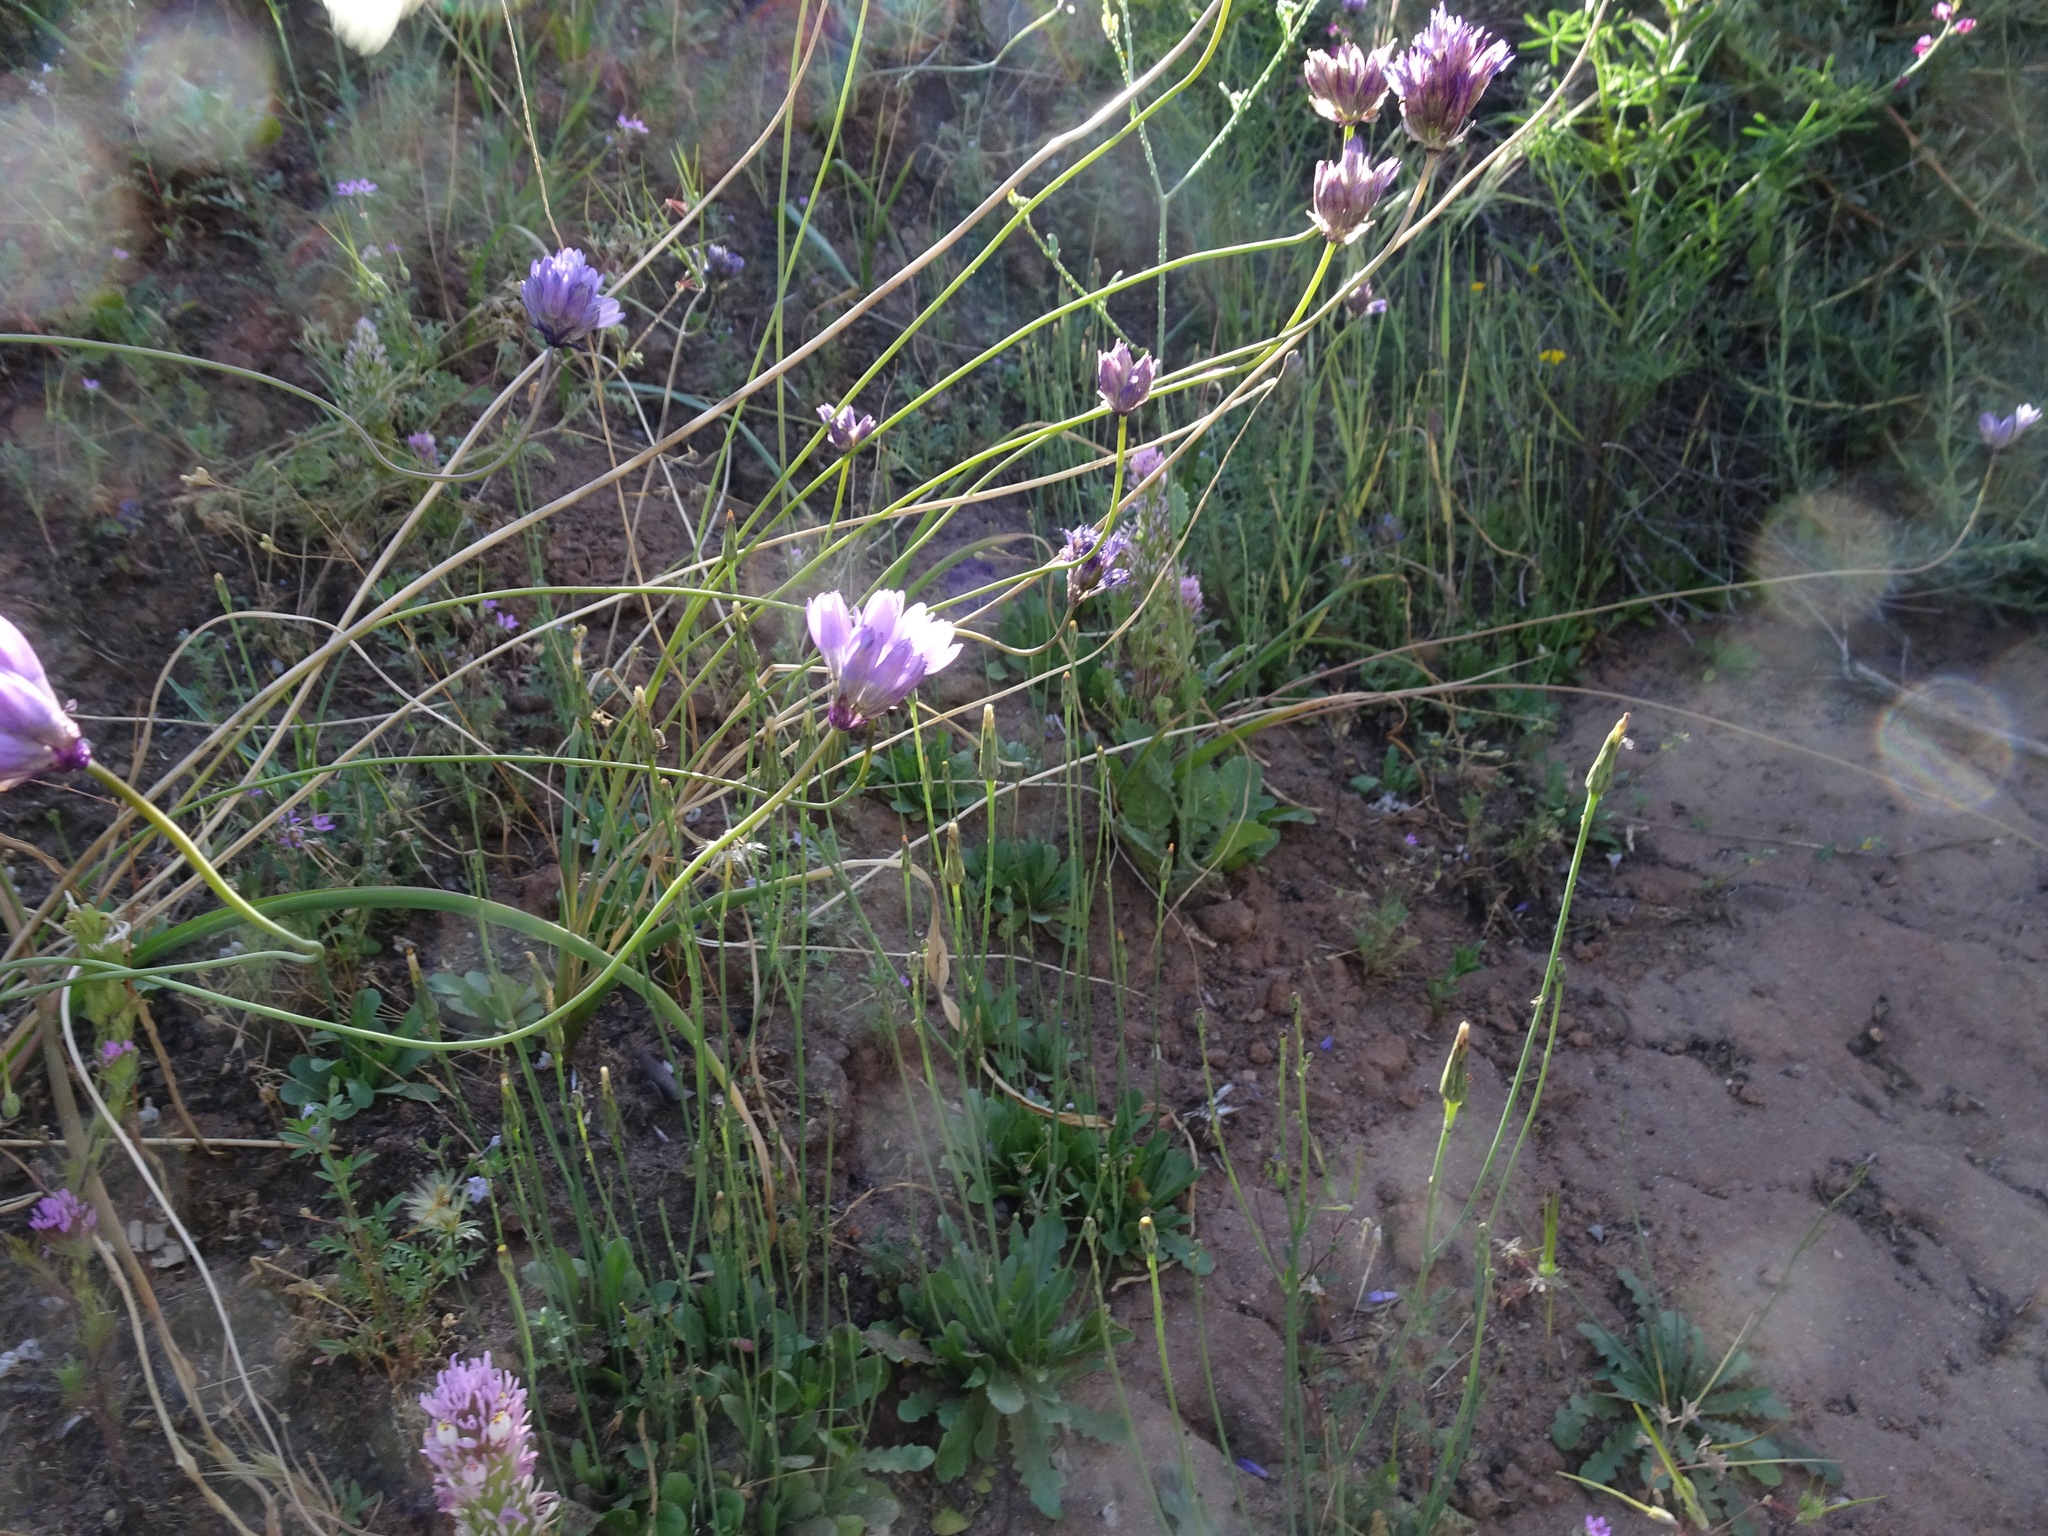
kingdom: Plantae
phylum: Tracheophyta
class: Liliopsida
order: Asparagales
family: Asparagaceae
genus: Dipterostemon
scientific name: Dipterostemon capitatus
